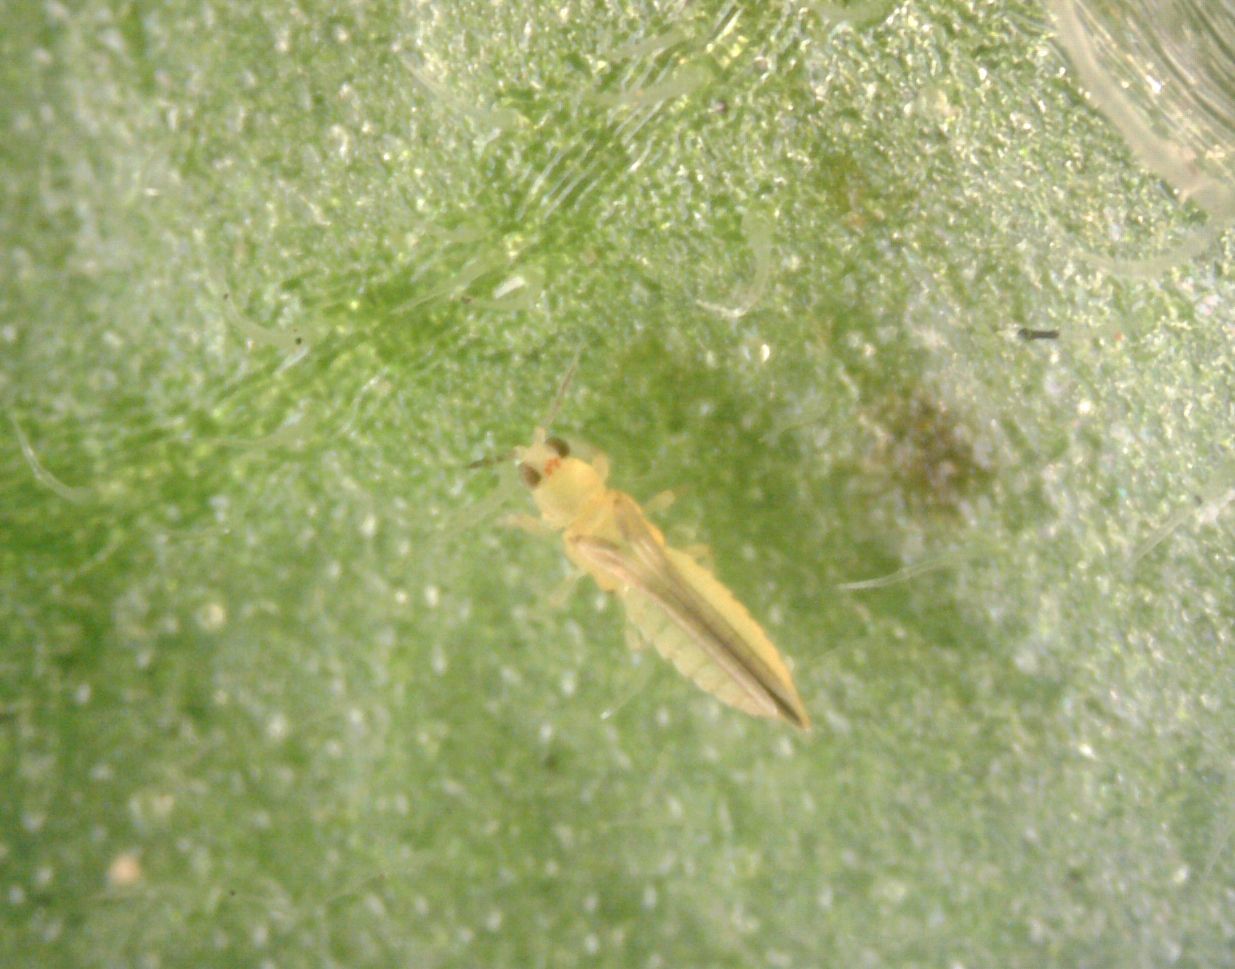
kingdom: Animalia
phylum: Arthropoda
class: Insecta
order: Thysanoptera
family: Thripidae
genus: Scirtothrips
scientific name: Scirtothrips dorsalis
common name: Thrips
